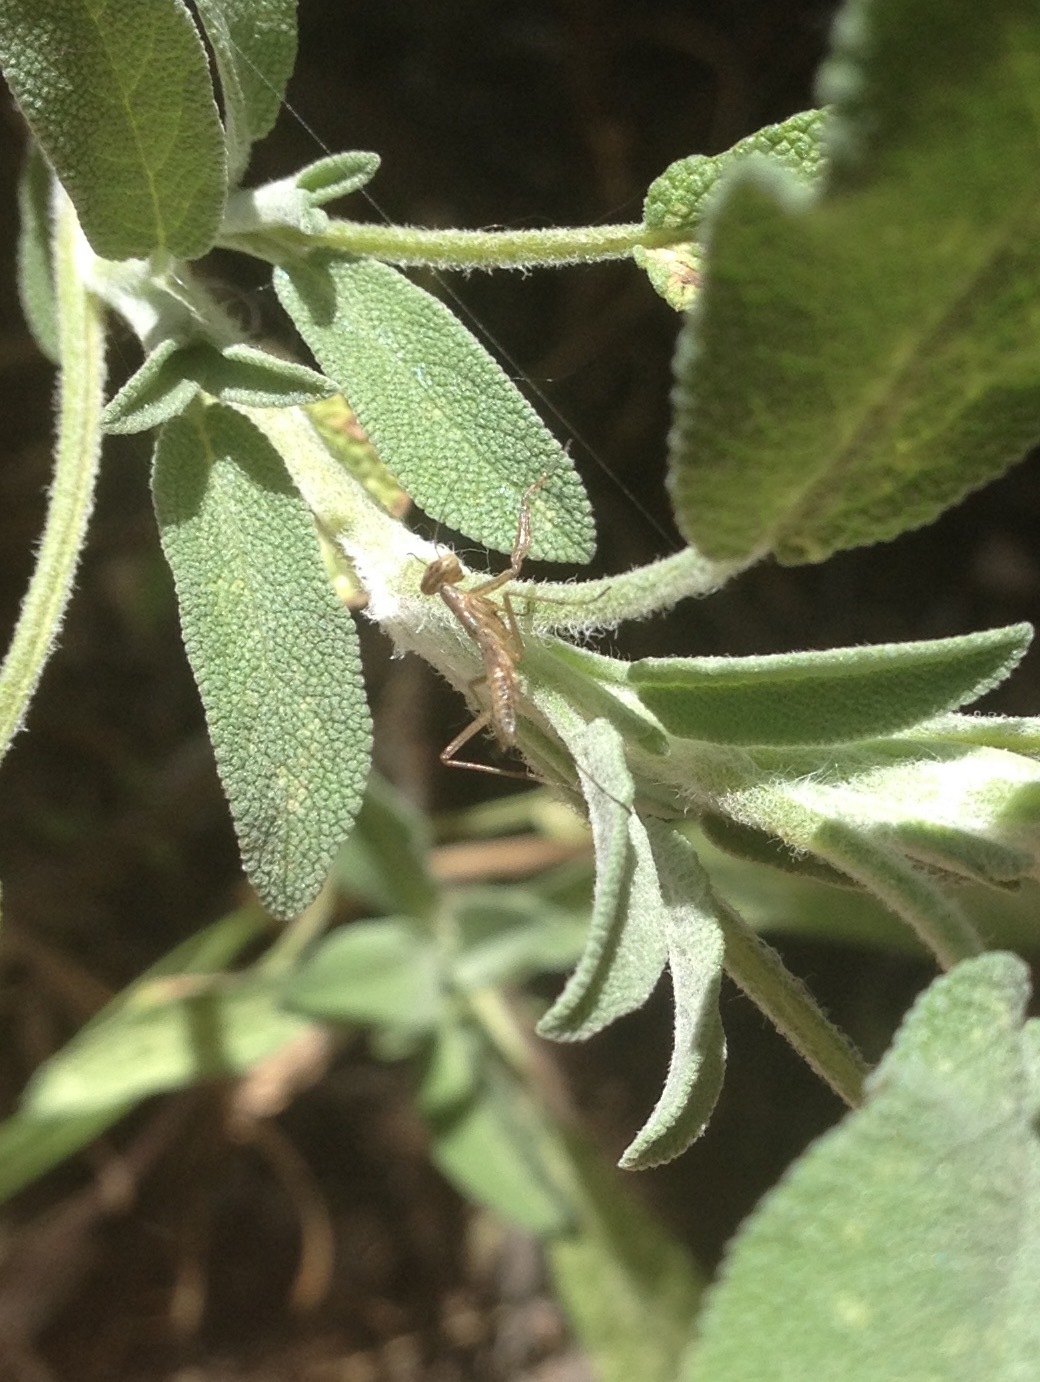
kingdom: Animalia
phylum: Arthropoda
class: Insecta
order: Mantodea
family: Mantidae
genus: Mantis
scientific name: Mantis religiosa
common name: Praying mantis
